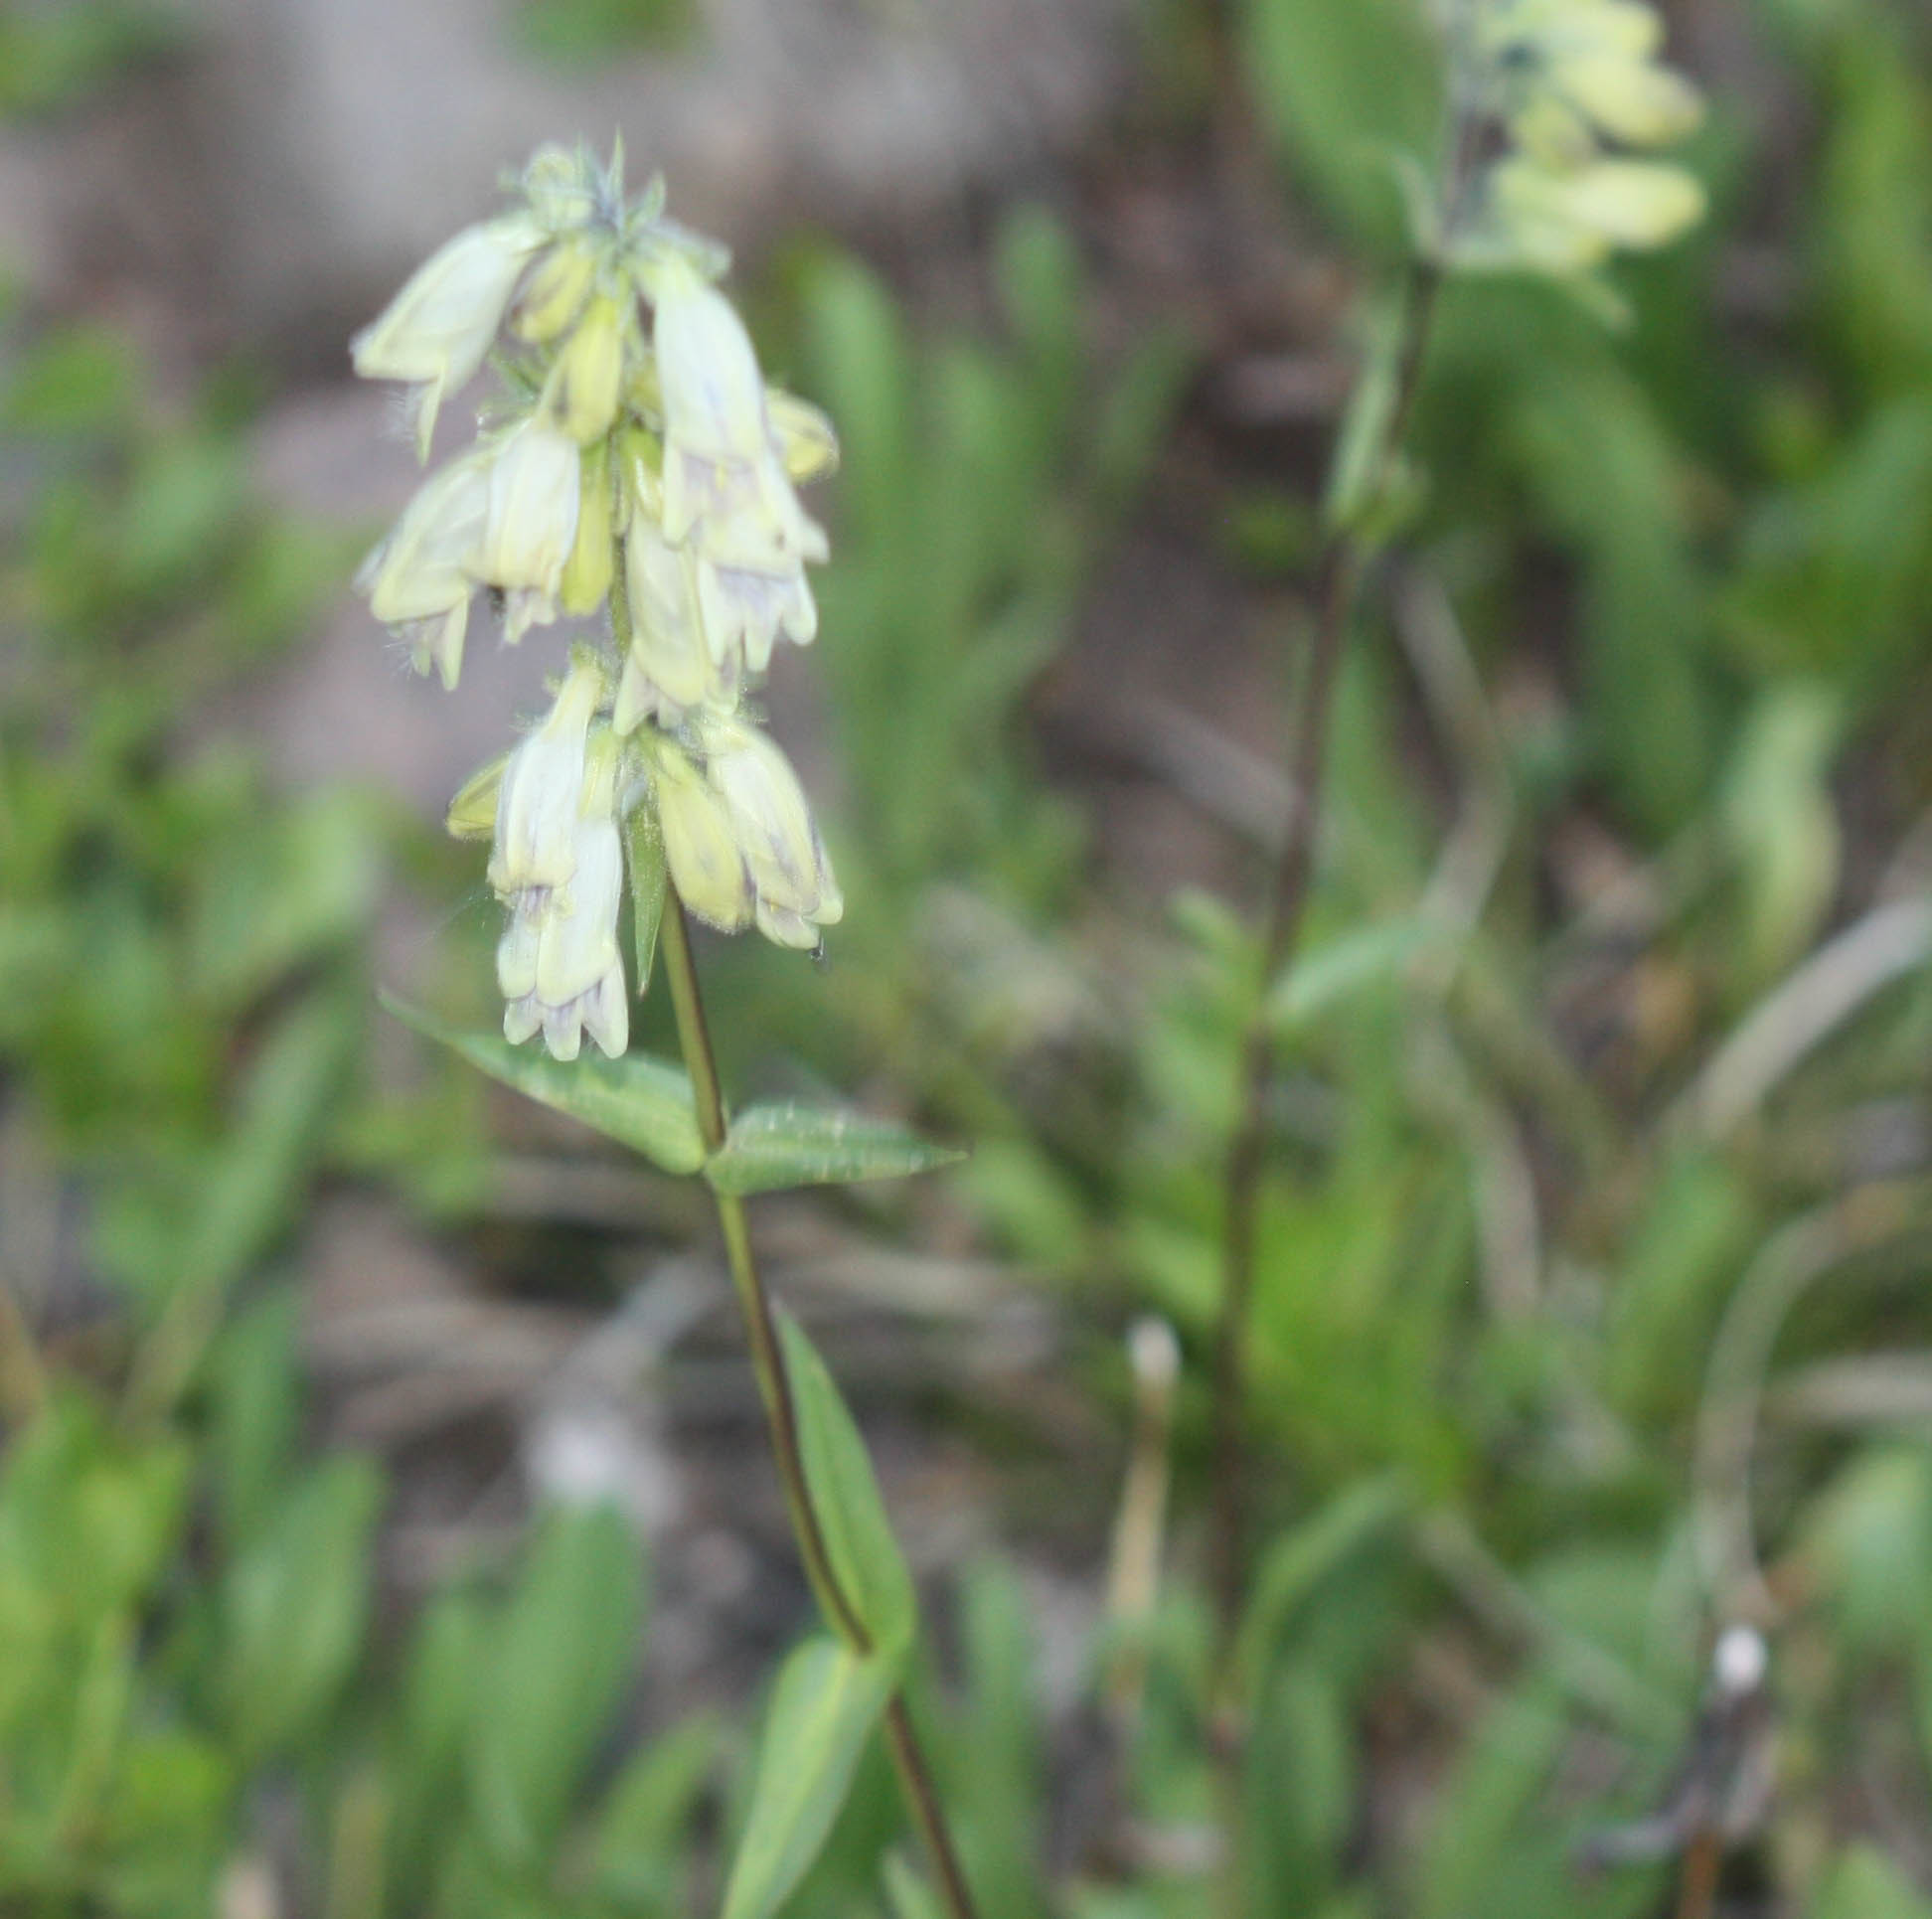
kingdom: Plantae
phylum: Tracheophyta
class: Magnoliopsida
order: Lamiales
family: Plantaginaceae
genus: Penstemon
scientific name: Penstemon whippleanus
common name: Whipple's penstemon
